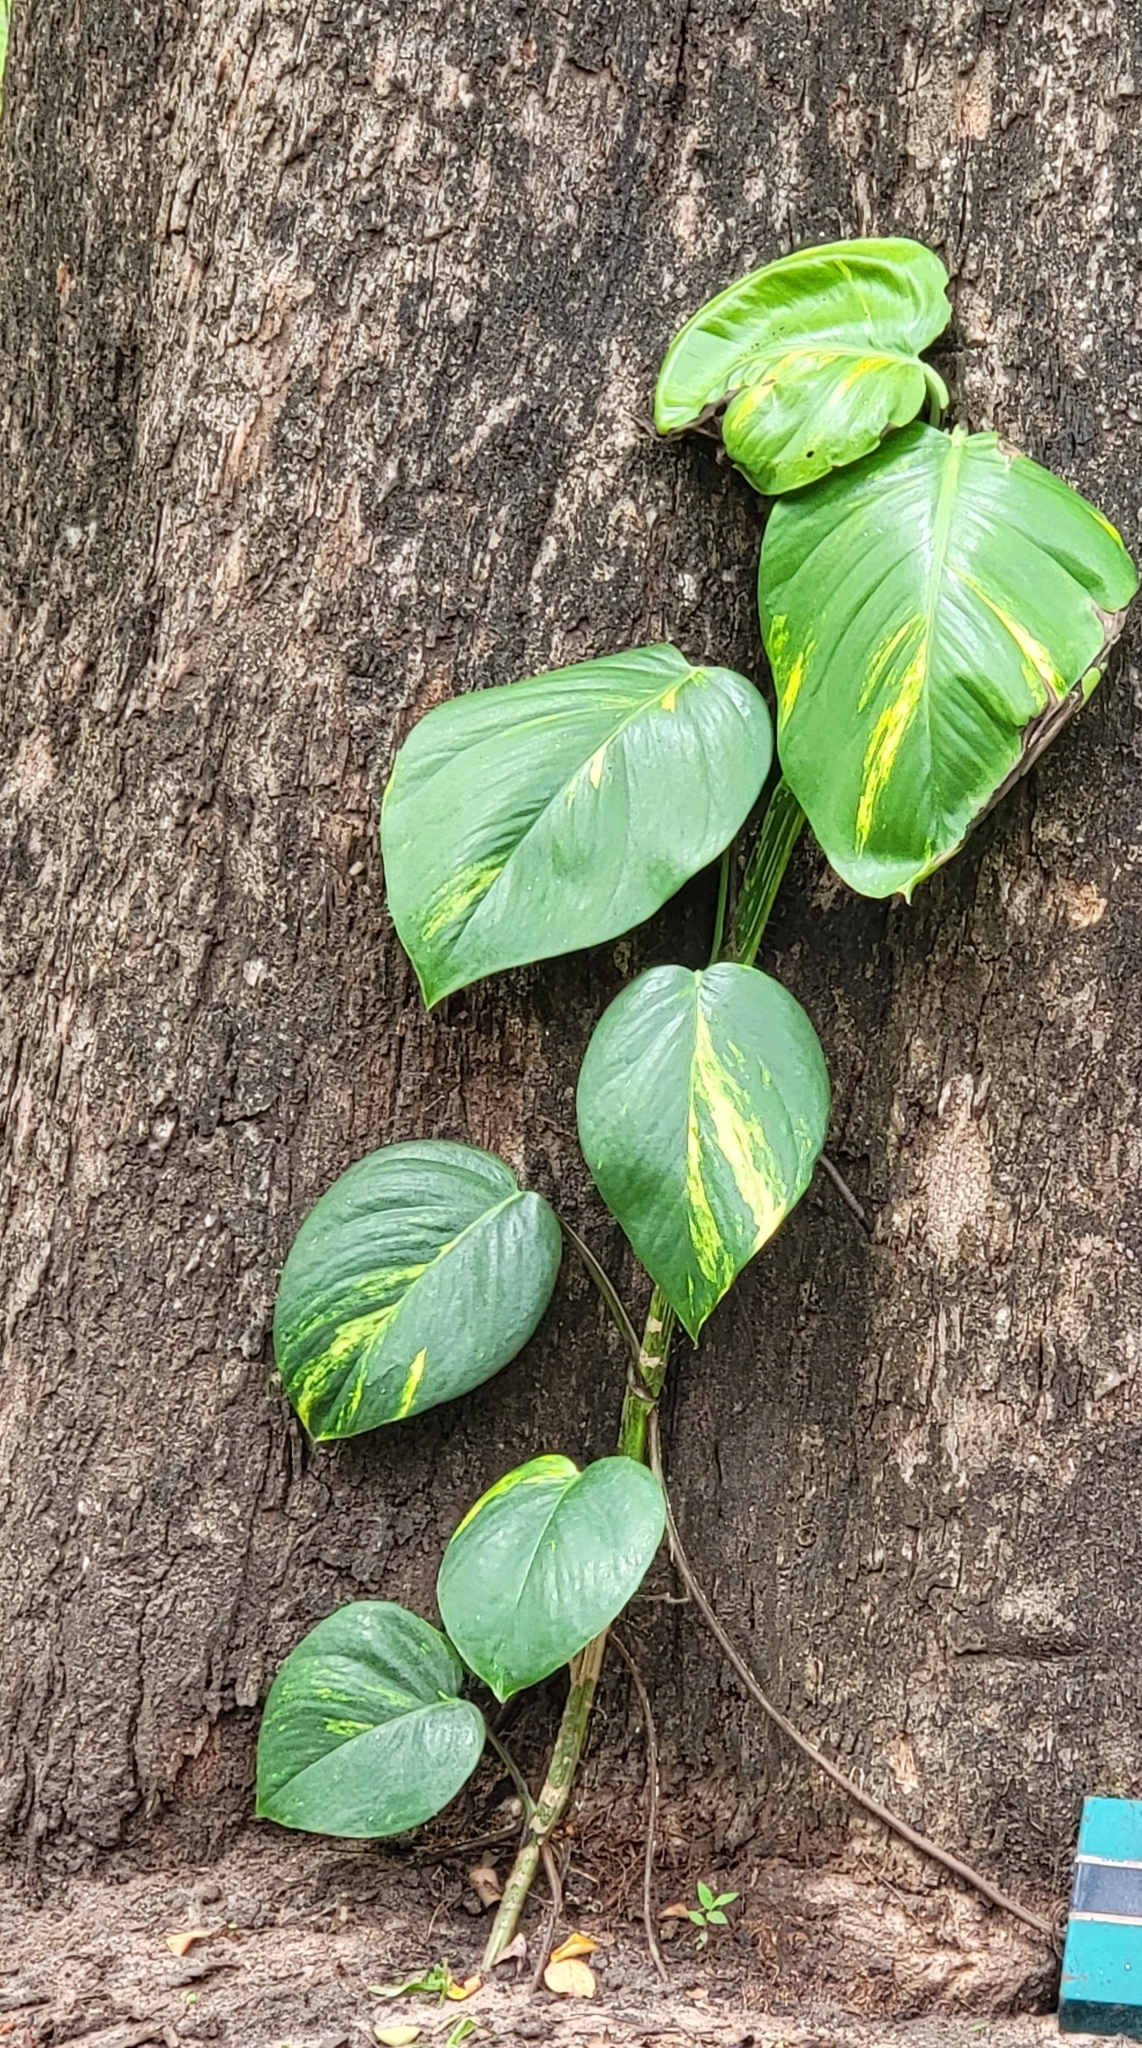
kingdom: Plantae
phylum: Tracheophyta
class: Liliopsida
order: Alismatales
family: Araceae
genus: Epipremnum
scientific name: Epipremnum aureum
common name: Golden hunter's-robe
